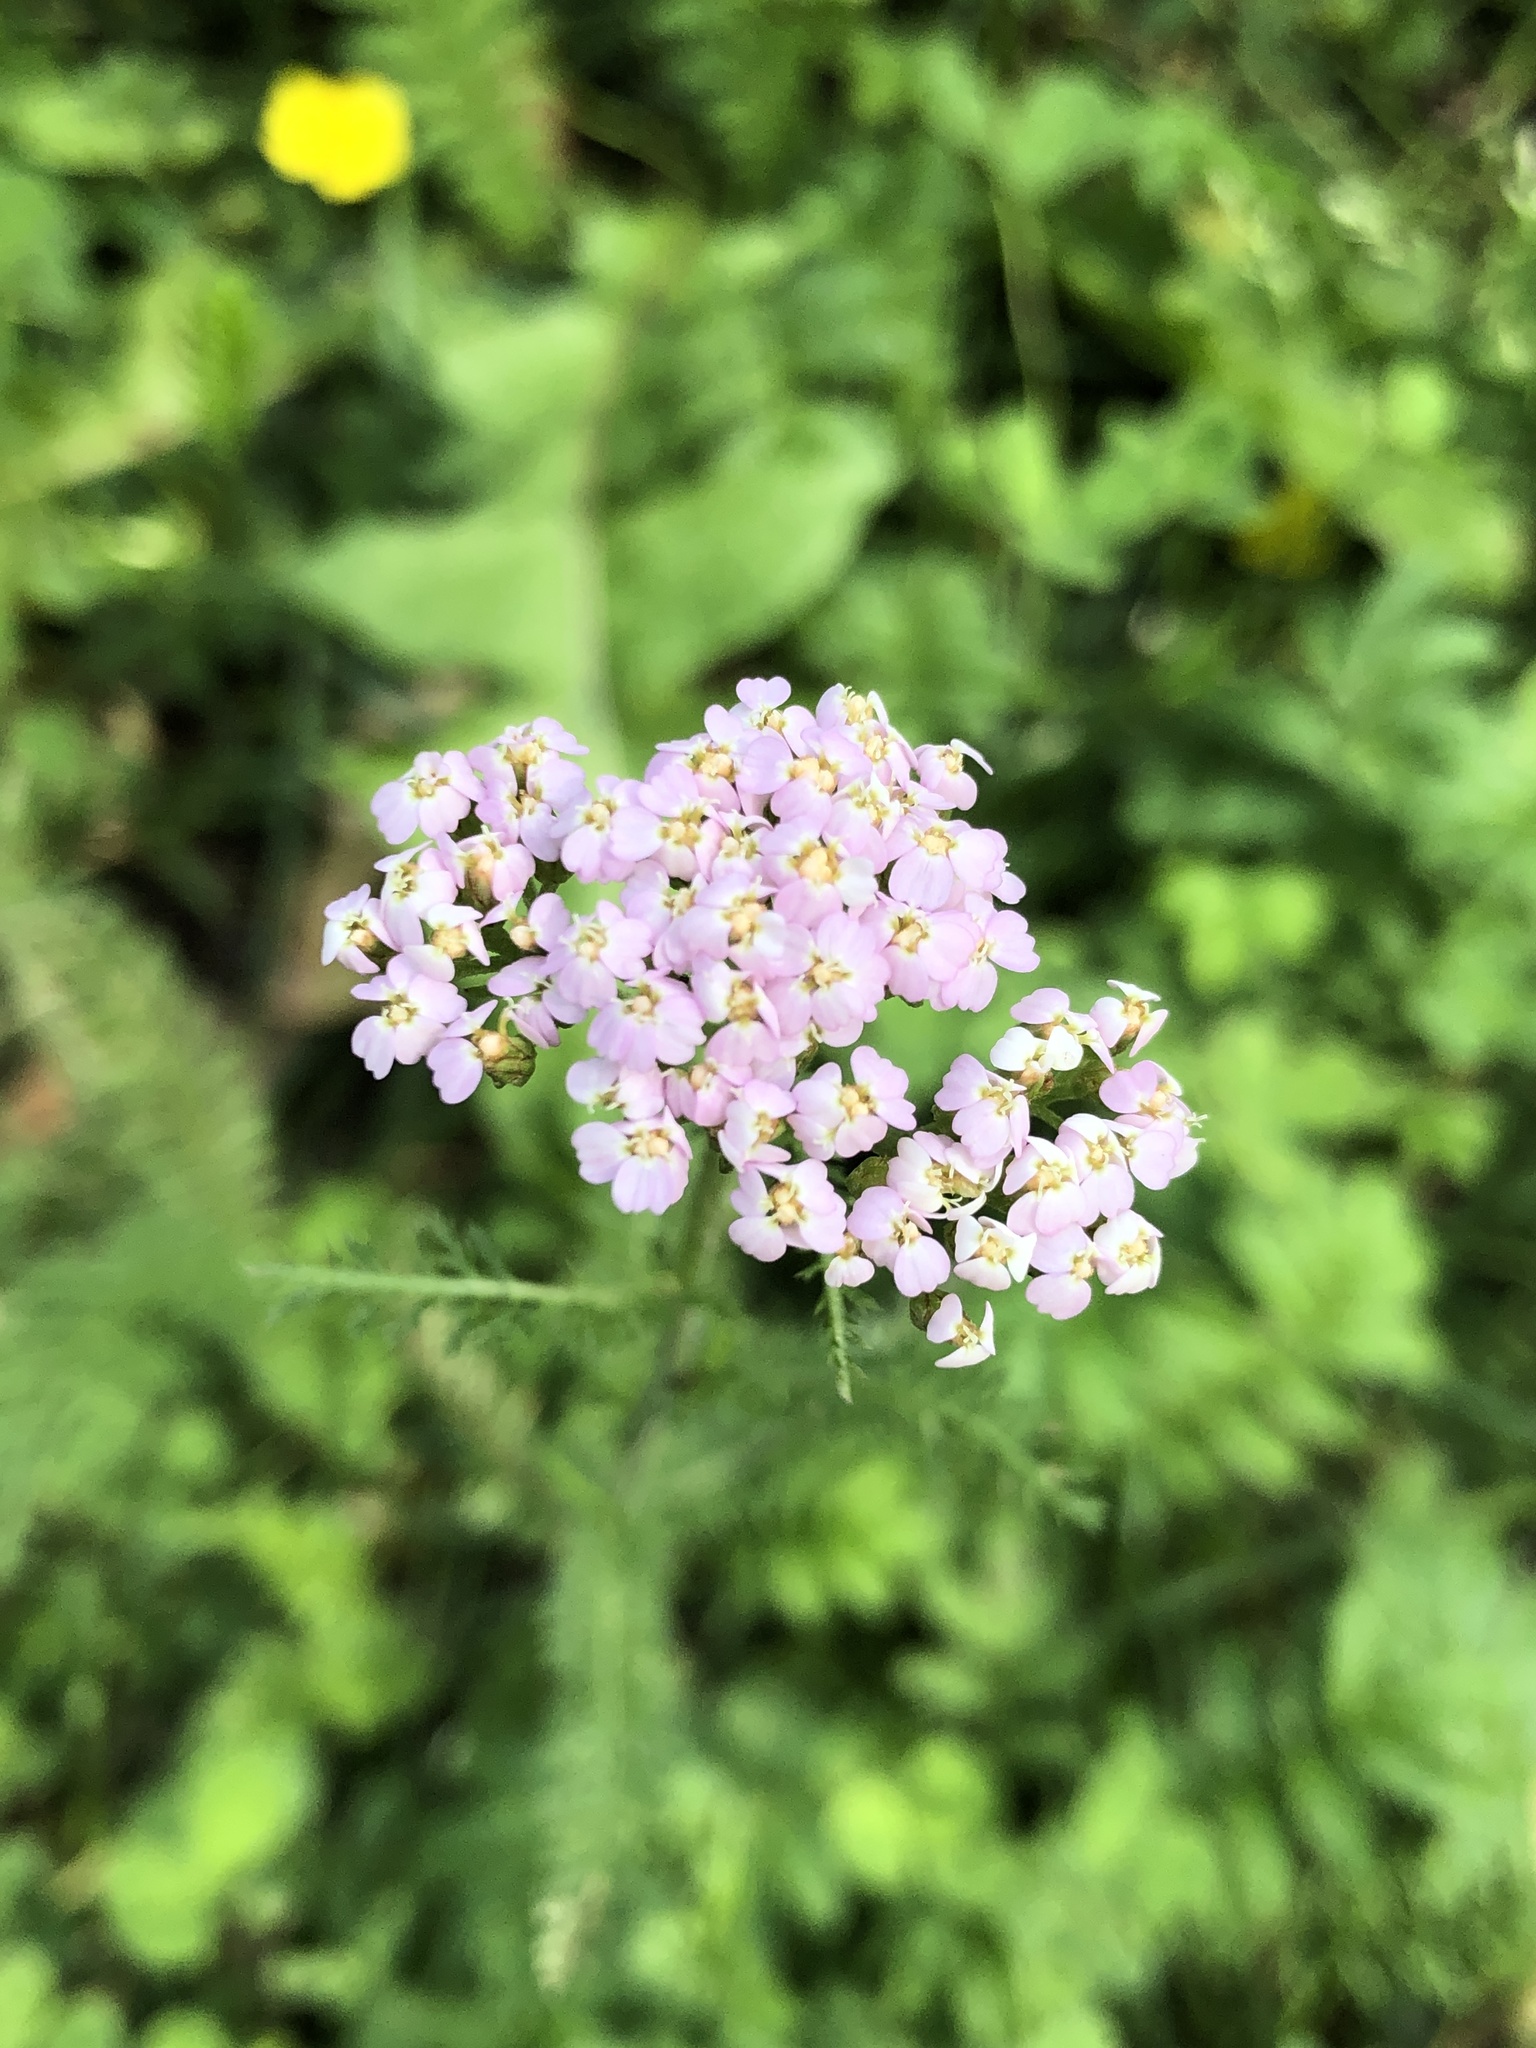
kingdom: Plantae
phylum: Tracheophyta
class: Magnoliopsida
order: Asterales
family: Asteraceae
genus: Achillea
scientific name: Achillea millefolium
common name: Yarrow
